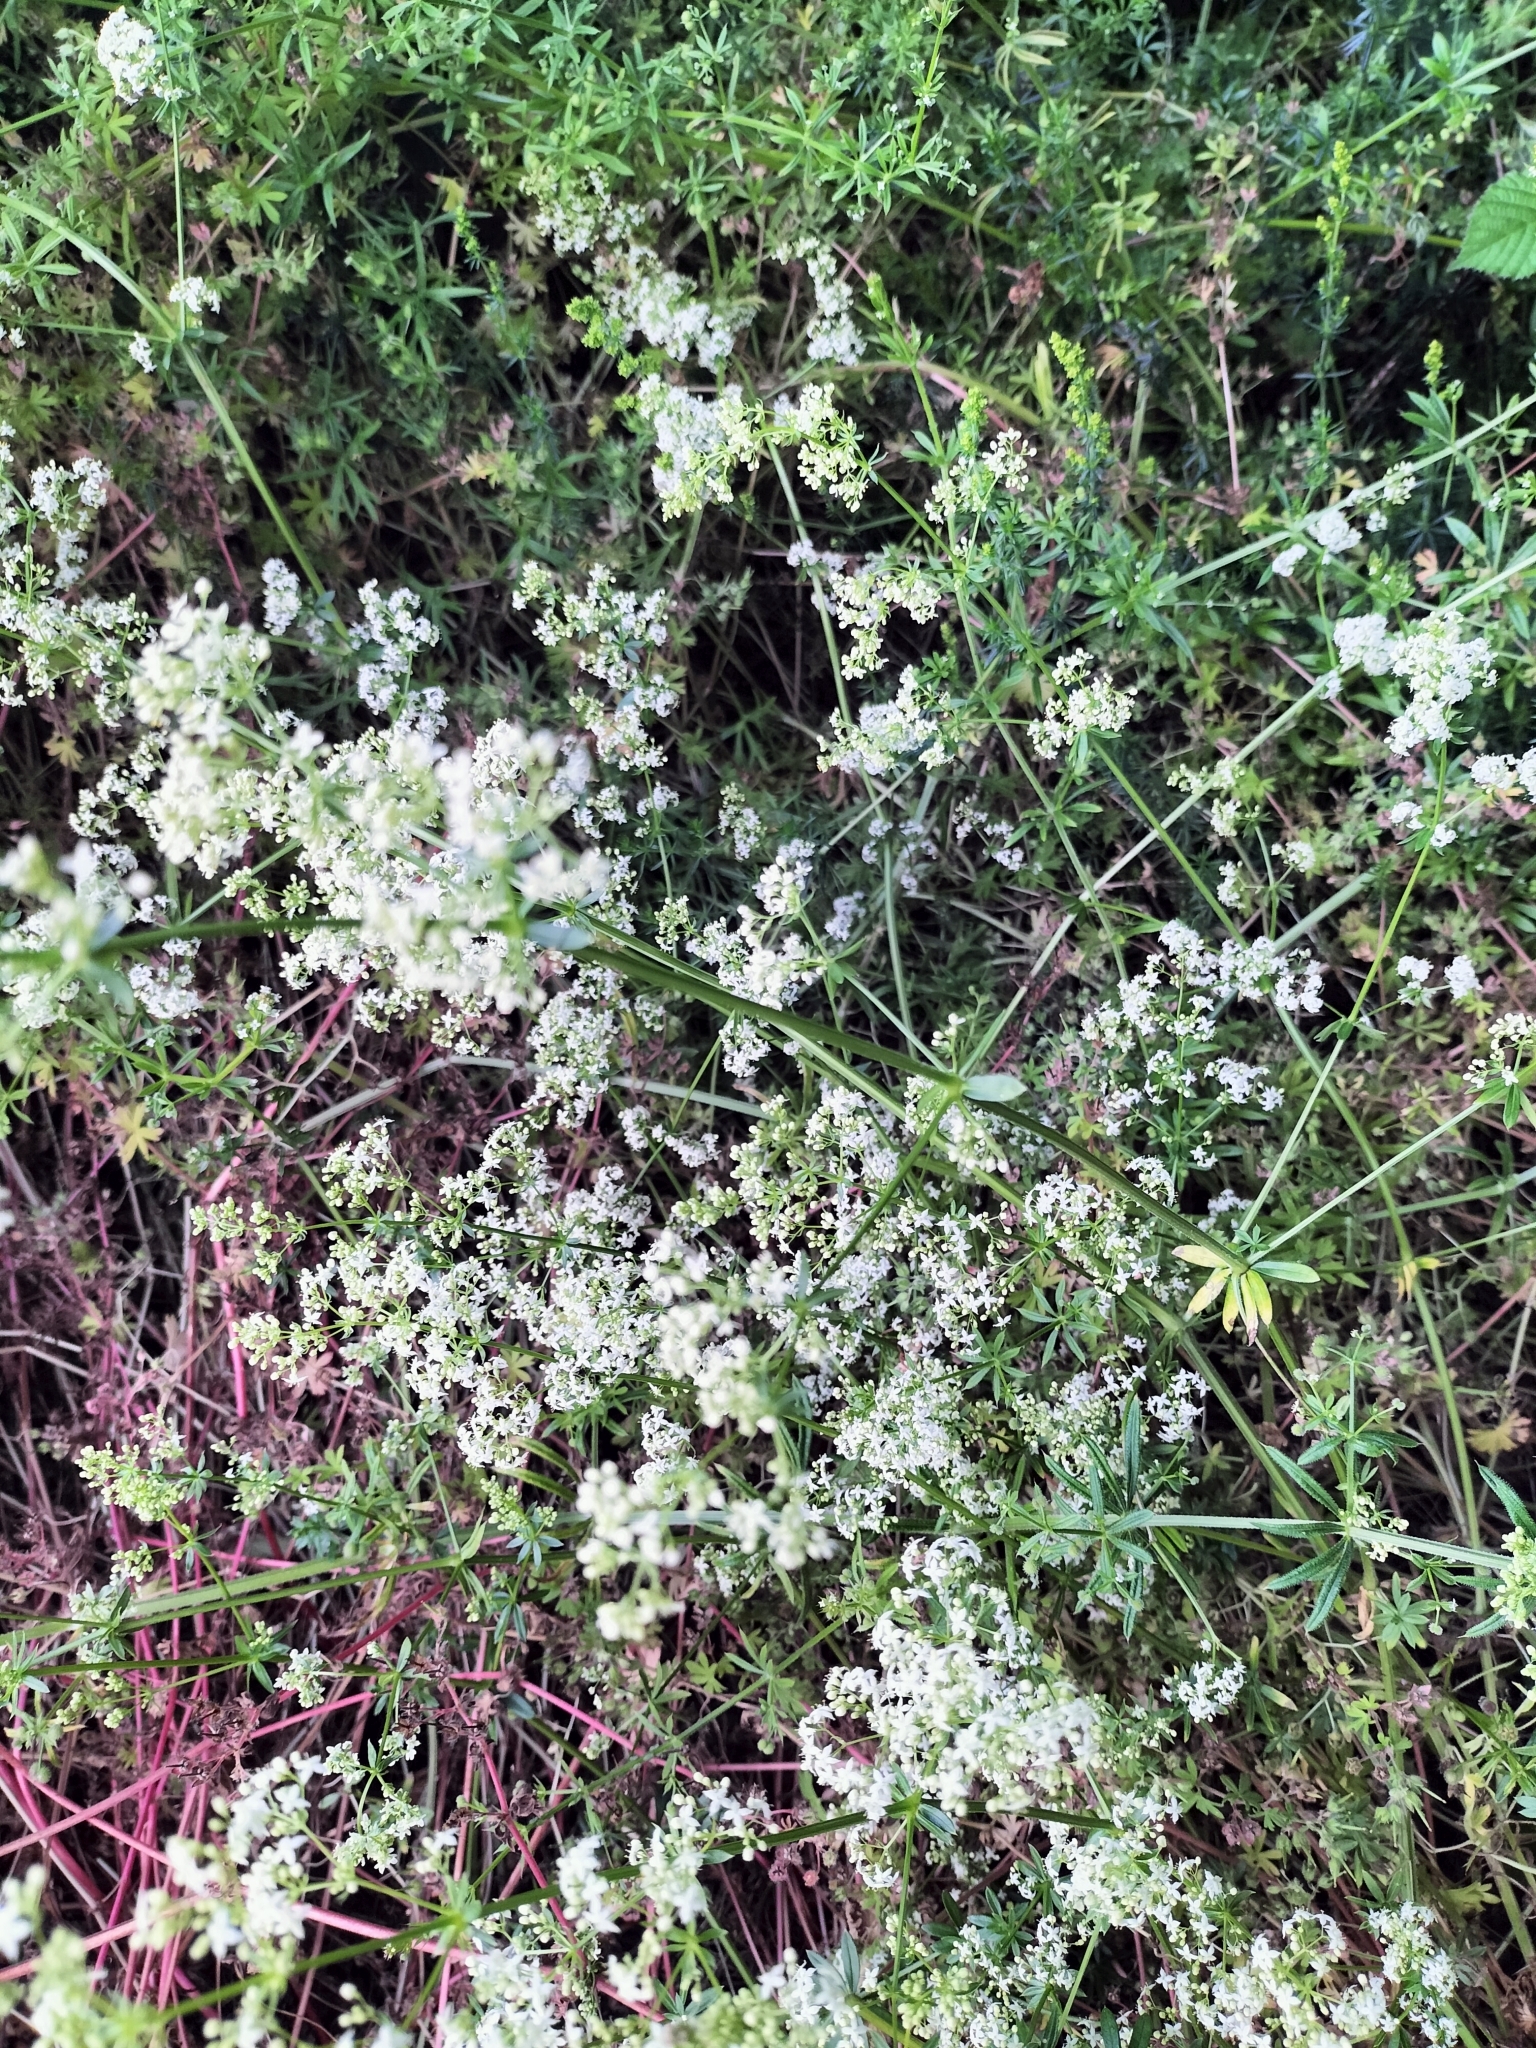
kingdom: Plantae
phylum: Tracheophyta
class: Magnoliopsida
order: Gentianales
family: Rubiaceae
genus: Galium
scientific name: Galium mollugo
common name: Hedge bedstraw
